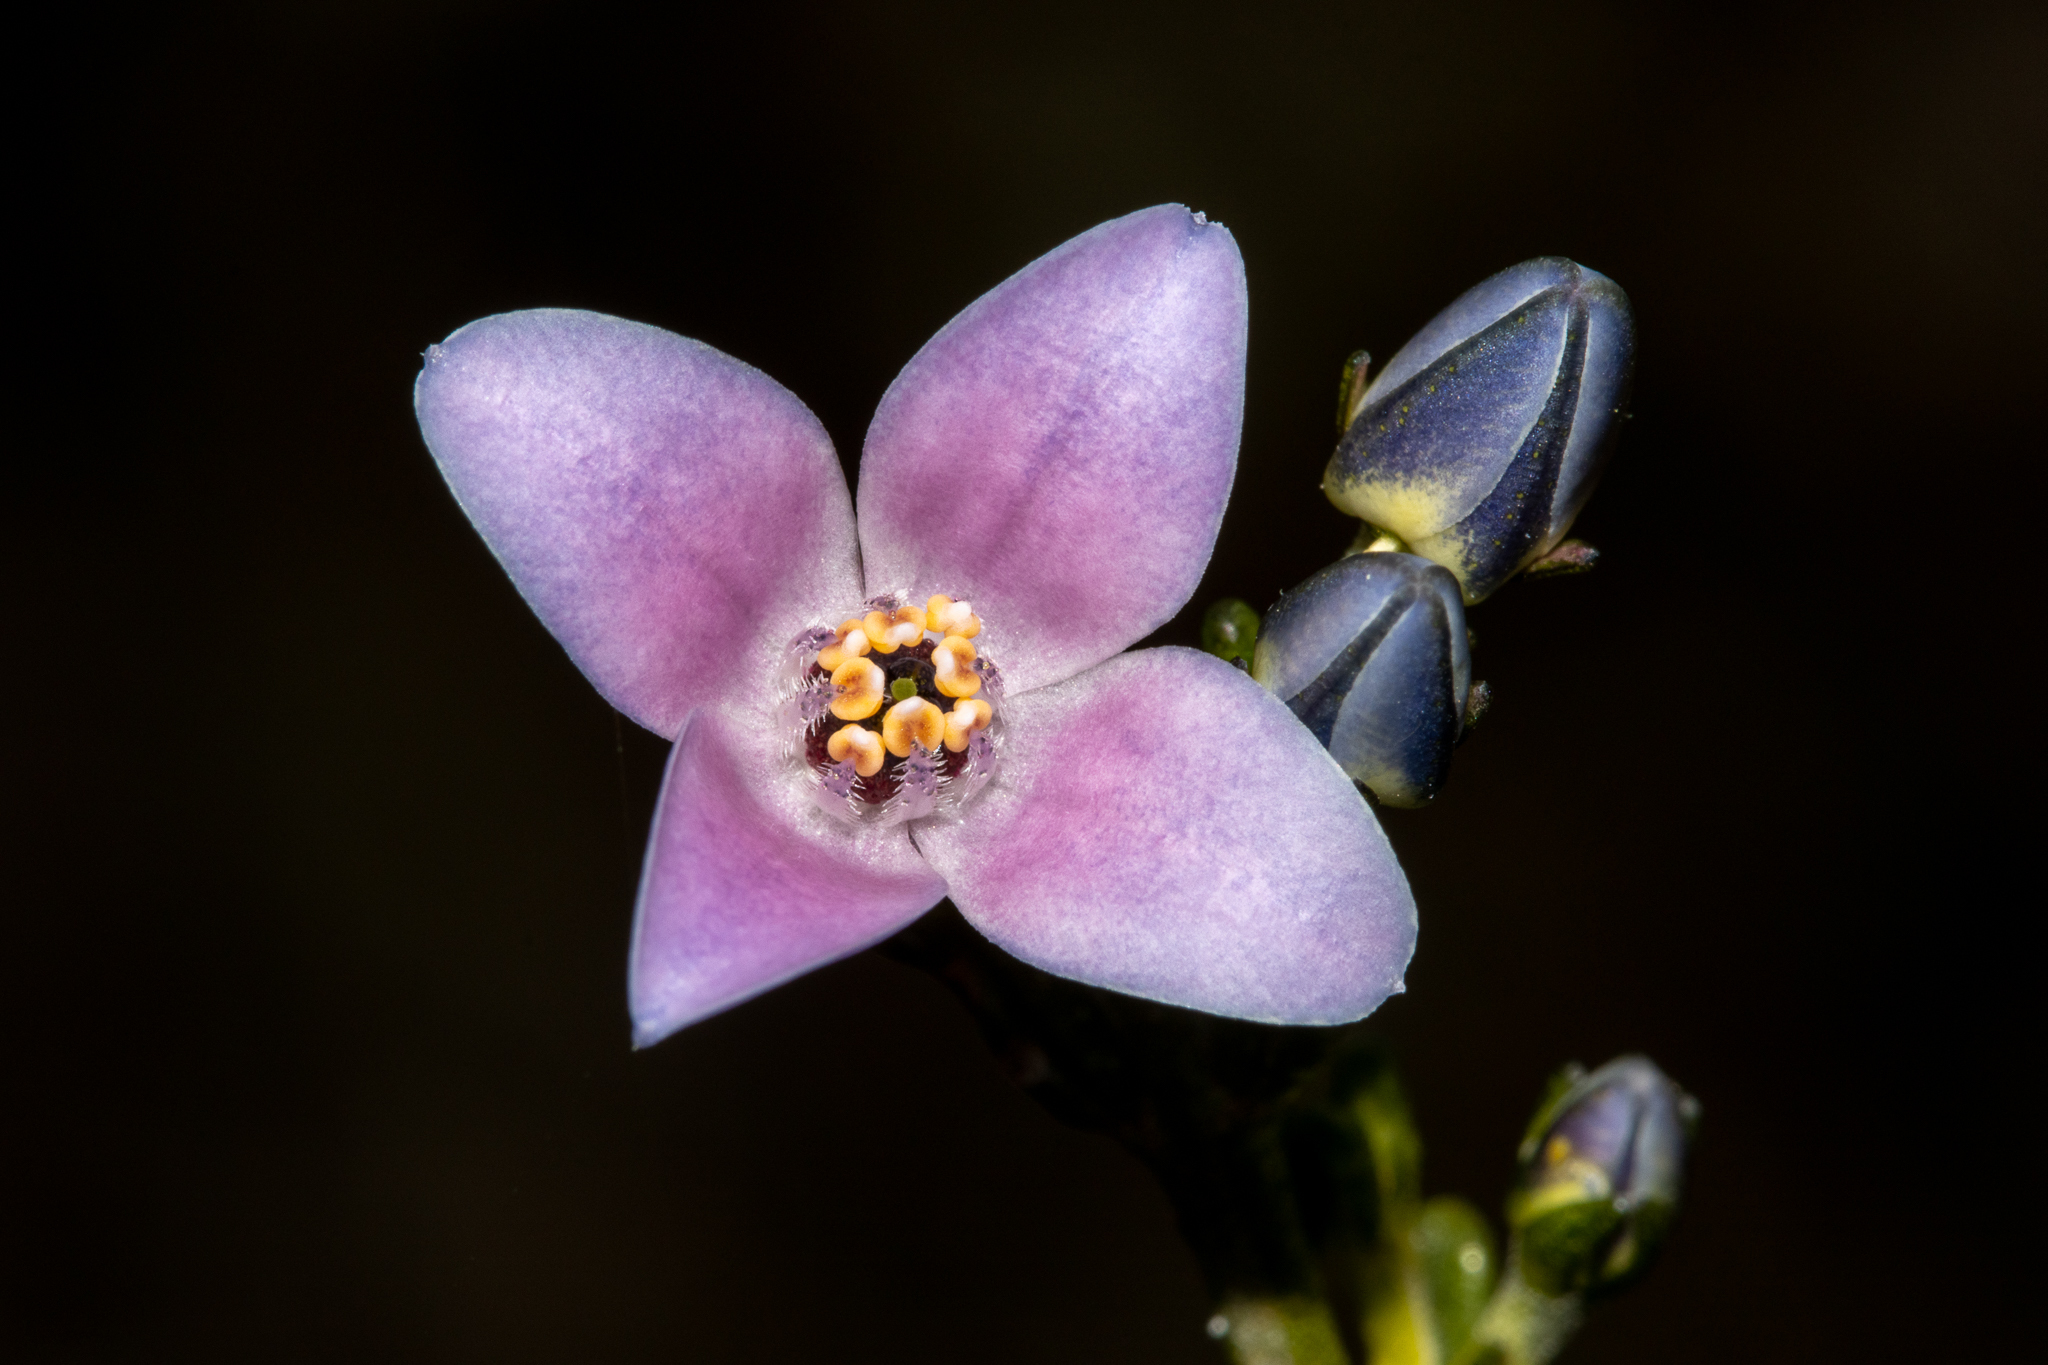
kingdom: Plantae
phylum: Tracheophyta
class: Magnoliopsida
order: Sapindales
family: Rutaceae
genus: Cyanothamnus
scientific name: Cyanothamnus coerulescens
